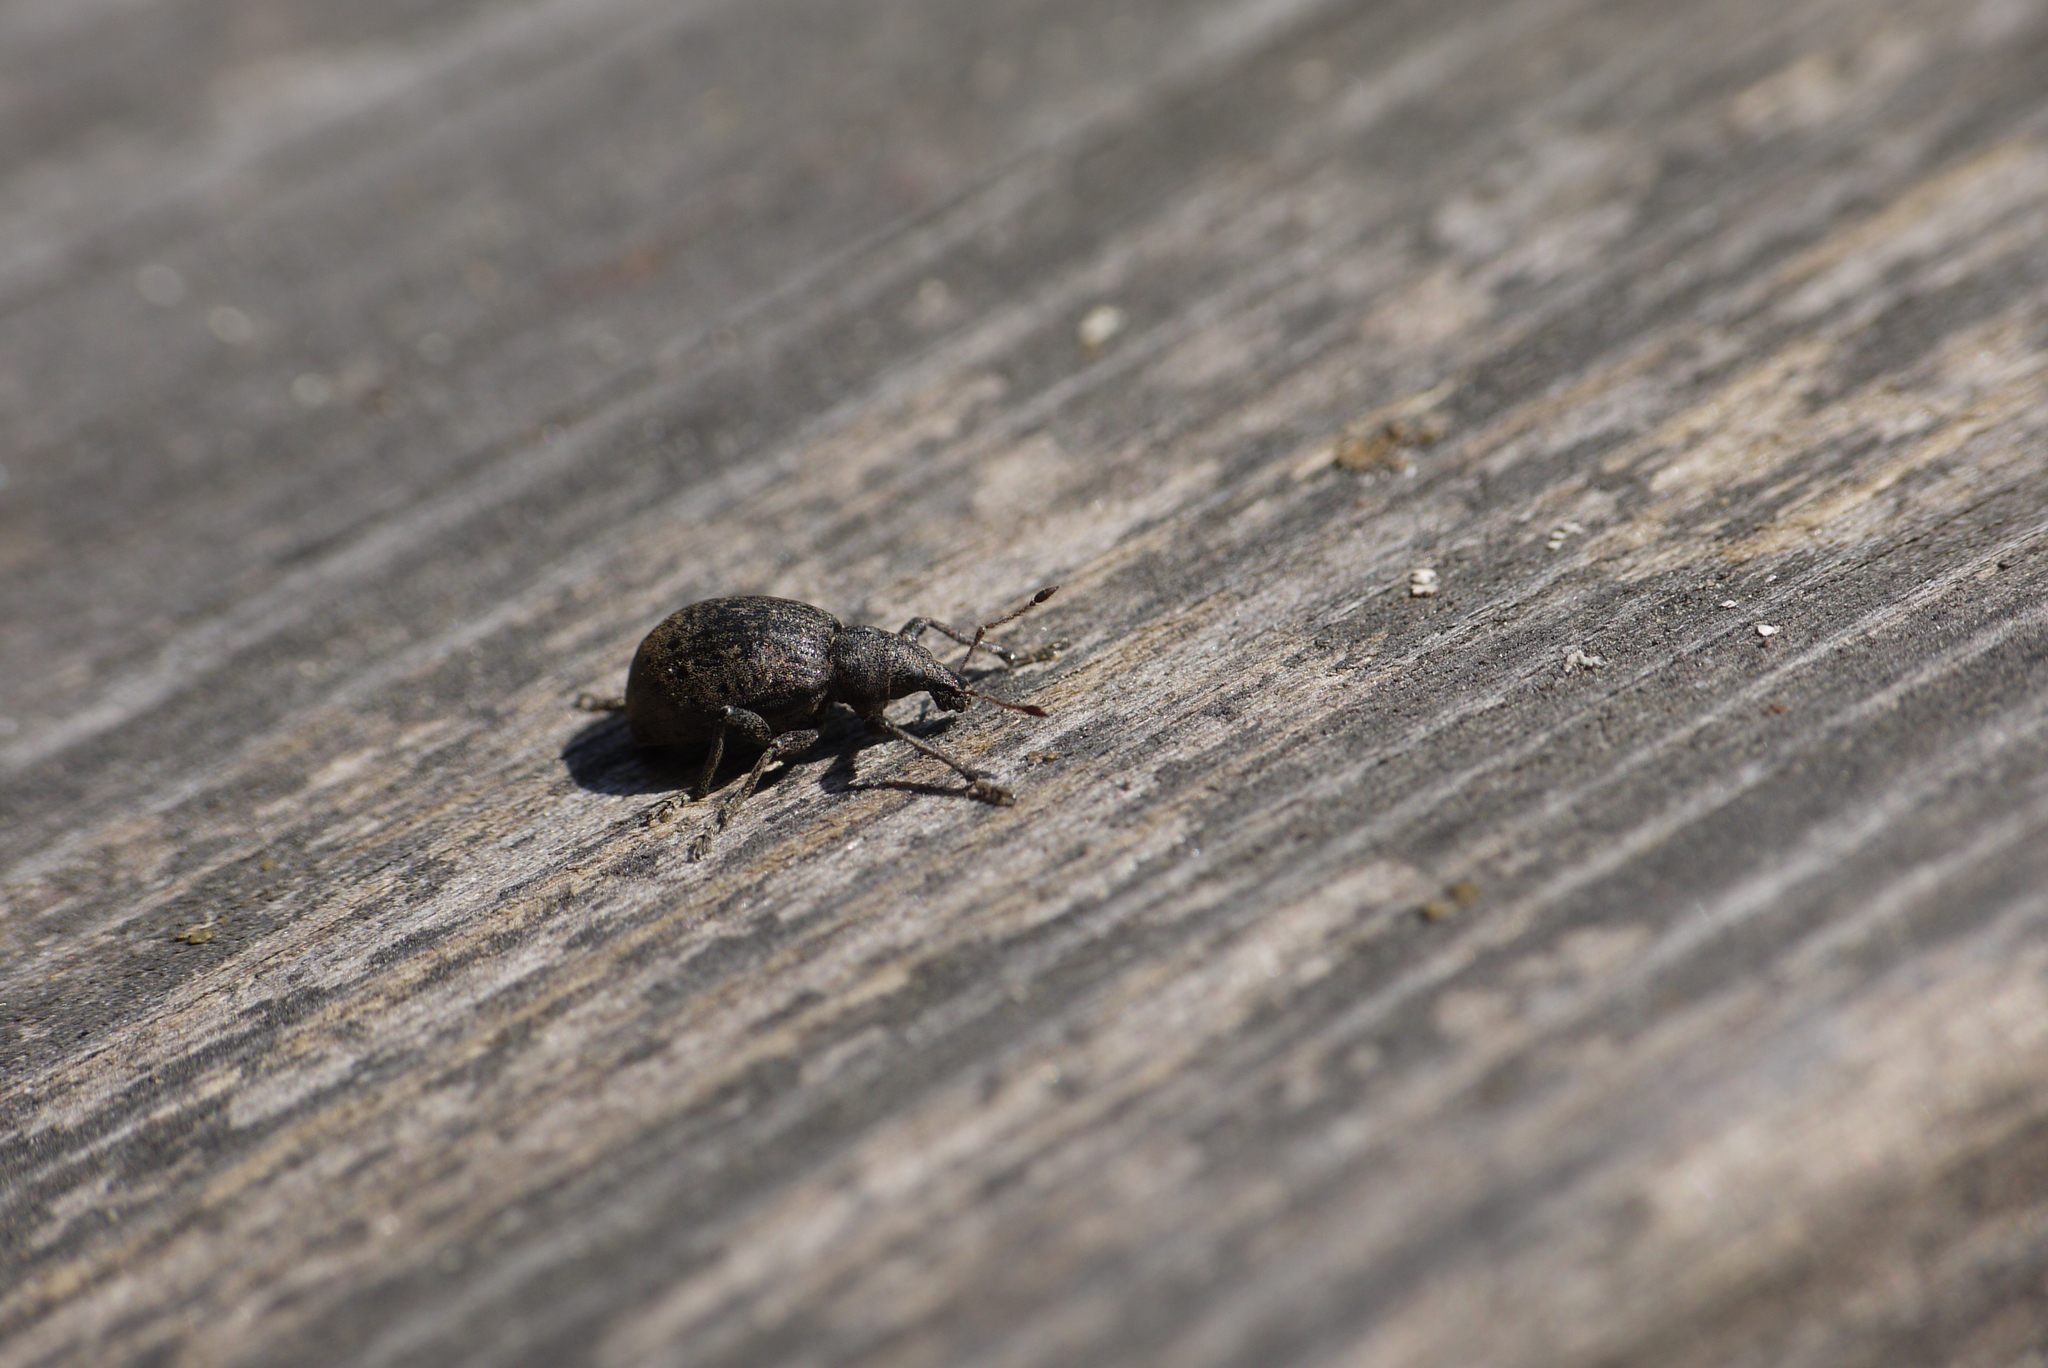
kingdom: Animalia
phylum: Arthropoda
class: Insecta
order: Coleoptera
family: Curculionidae
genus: Liophloeus
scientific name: Liophloeus tessulatus
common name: Weevil
